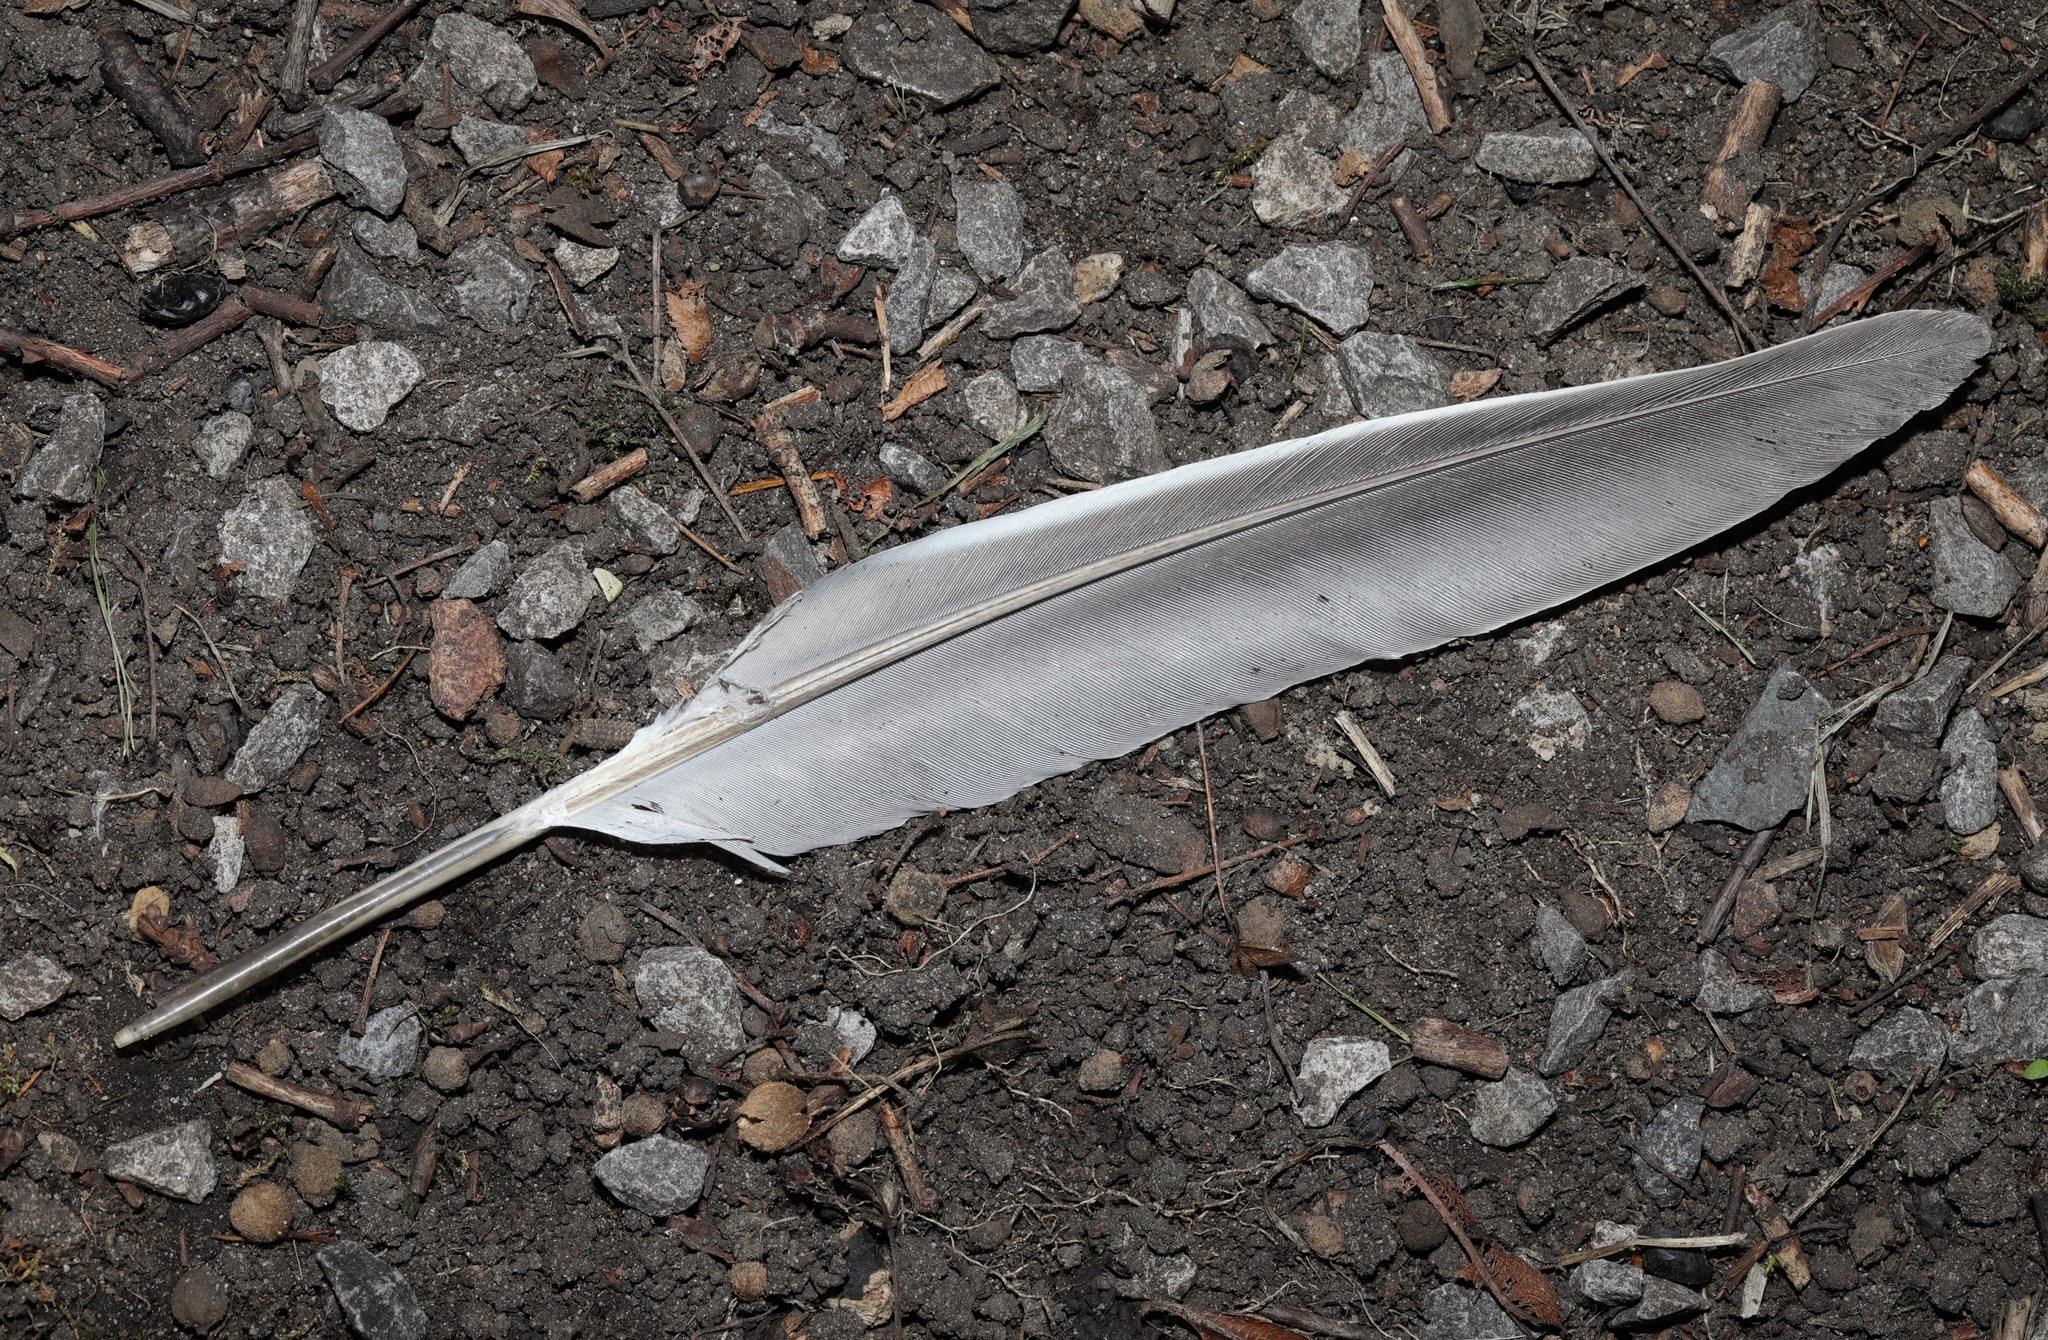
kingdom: Animalia
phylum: Chordata
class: Aves
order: Columbiformes
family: Columbidae
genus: Columba
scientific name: Columba palumbus
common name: Common wood pigeon
